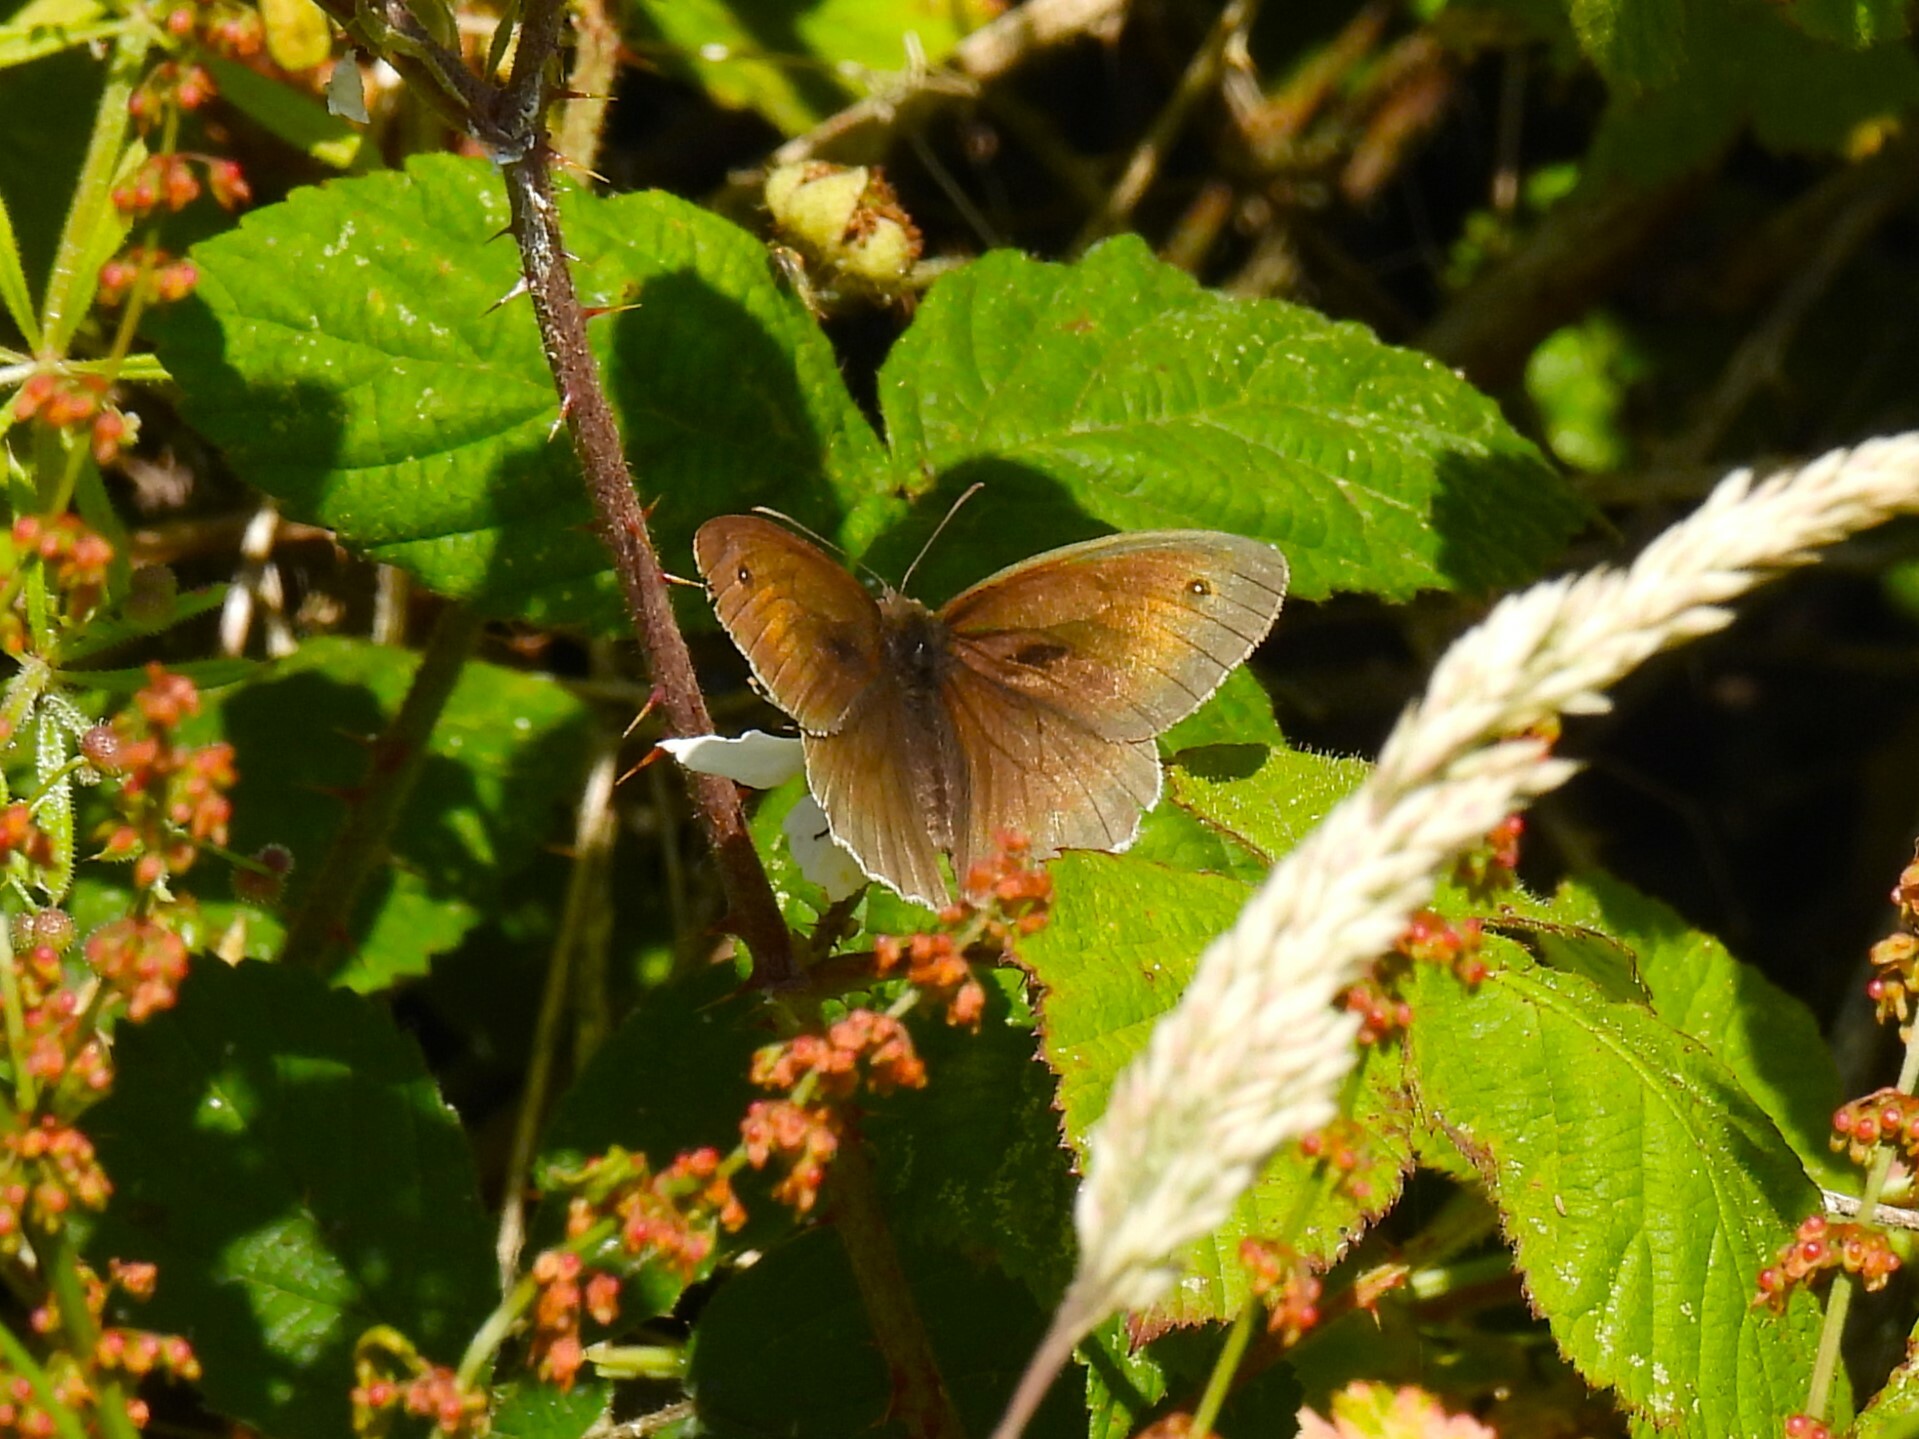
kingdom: Animalia
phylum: Arthropoda
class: Insecta
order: Lepidoptera
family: Nymphalidae
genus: Maniola
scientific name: Maniola jurtina
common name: Meadow brown
